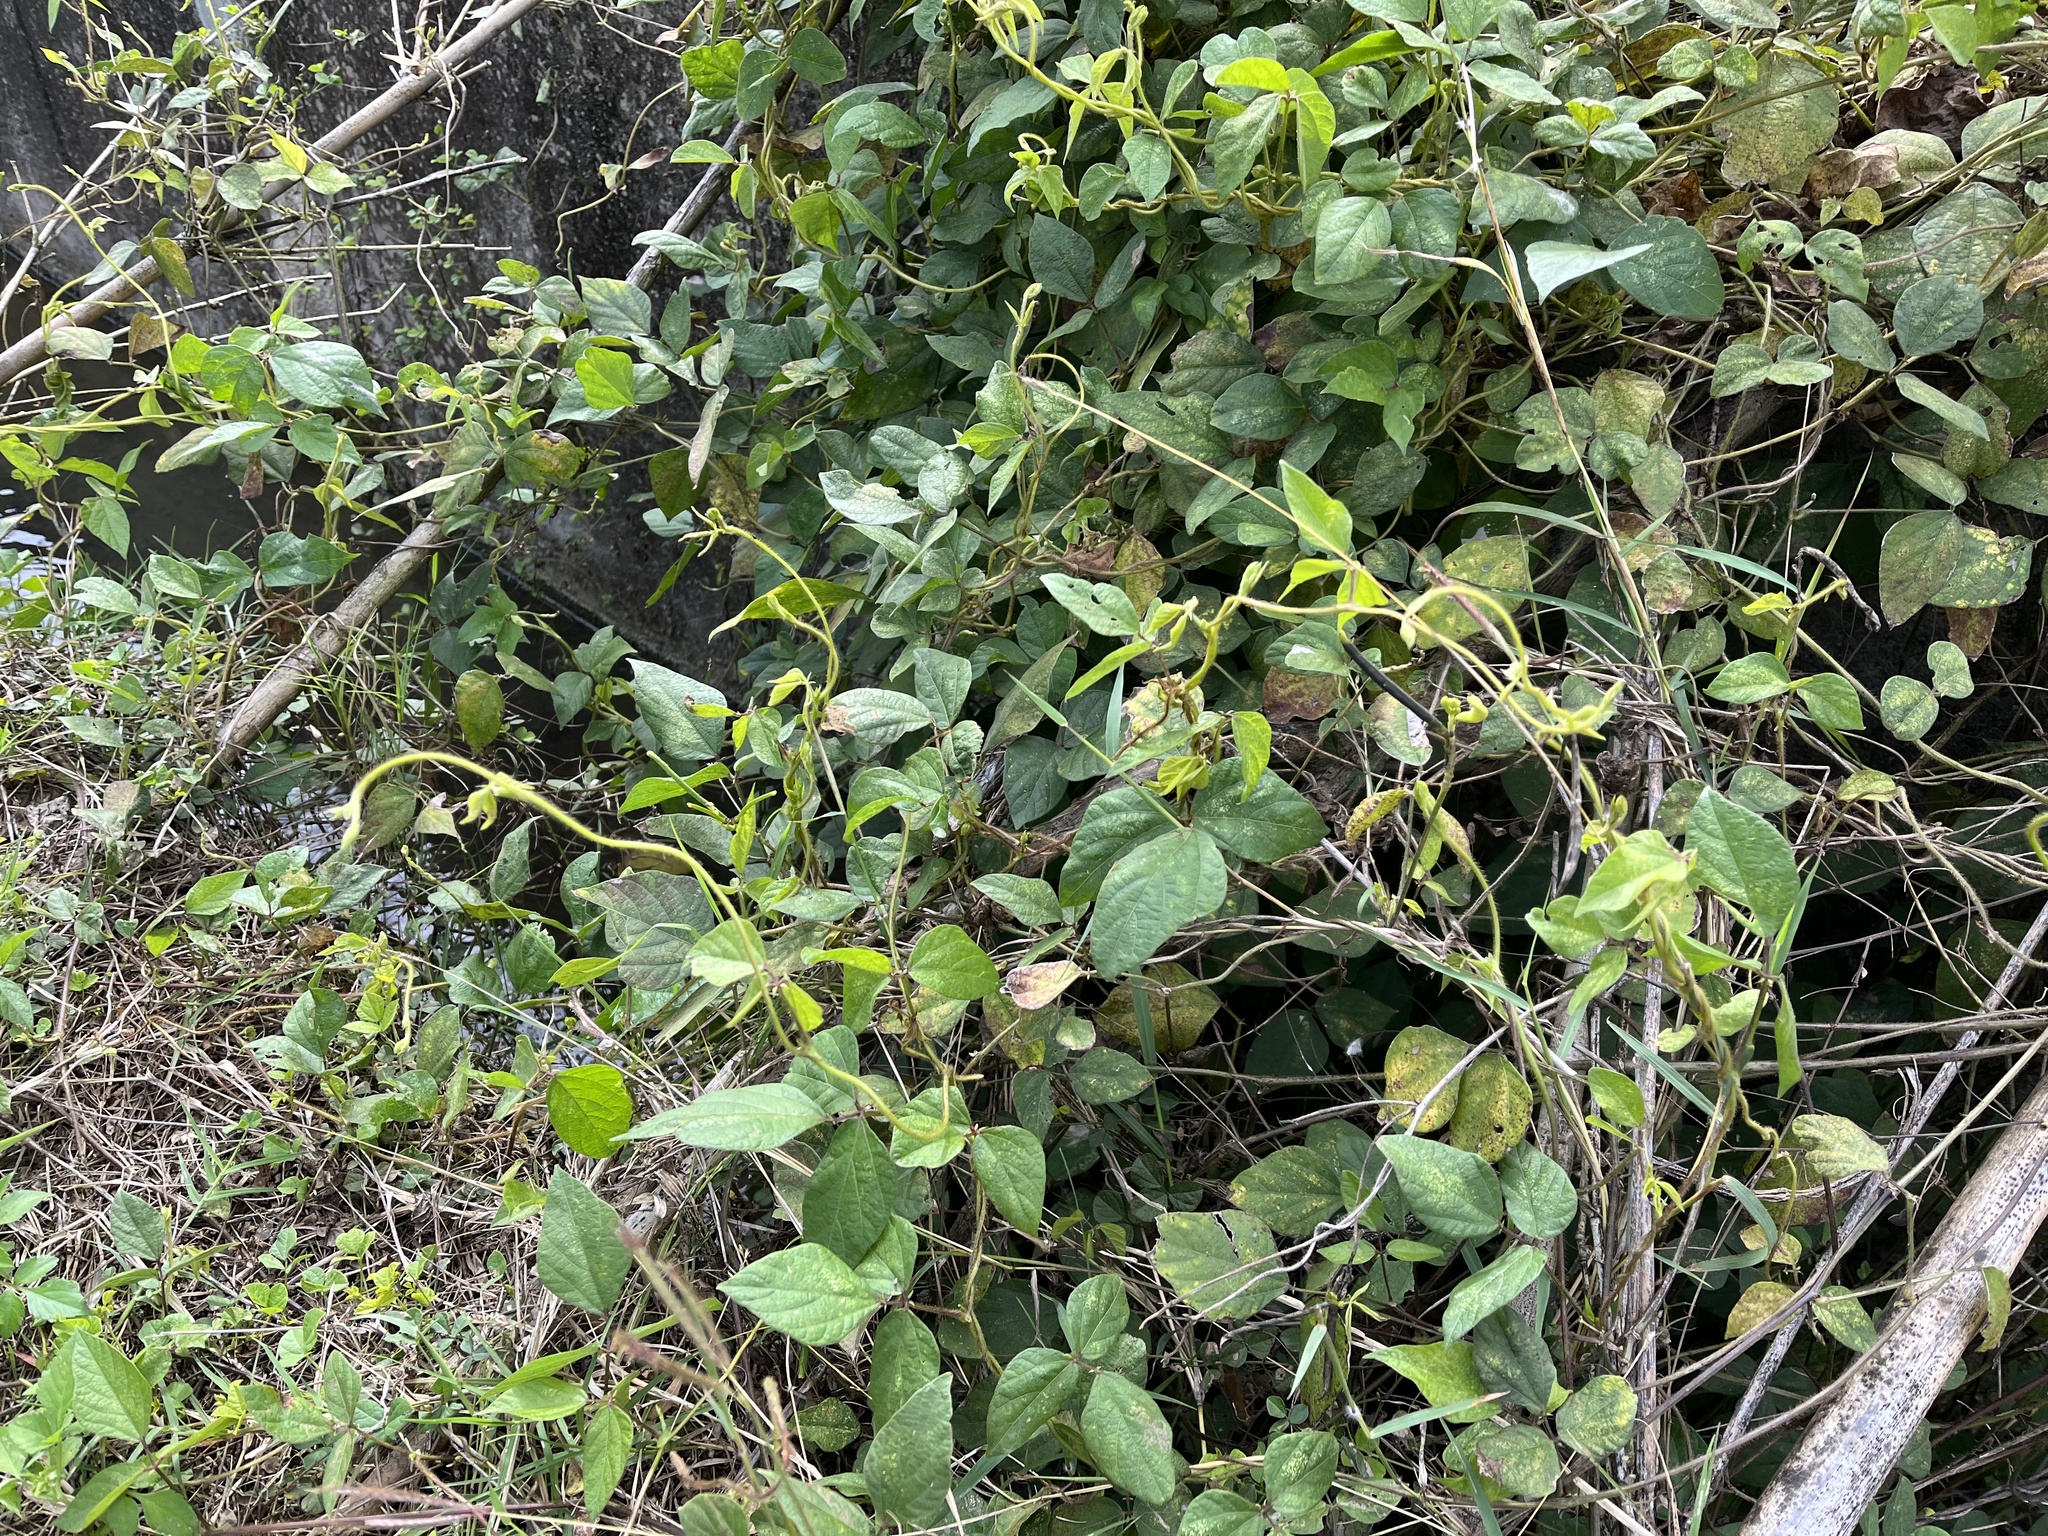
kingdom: Plantae
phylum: Tracheophyta
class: Magnoliopsida
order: Fabales
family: Fabaceae
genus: Vigna
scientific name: Vigna reflexopilosa
